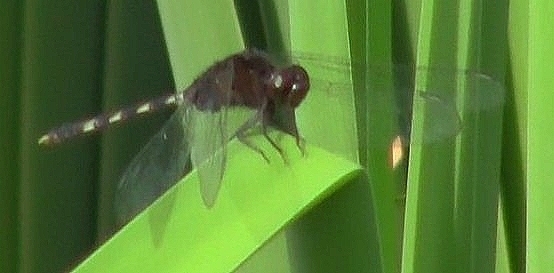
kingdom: Animalia
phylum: Arthropoda
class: Insecta
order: Odonata
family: Libellulidae
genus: Erythemis
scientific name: Erythemis plebeja
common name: Pin-tailed pondhawk
